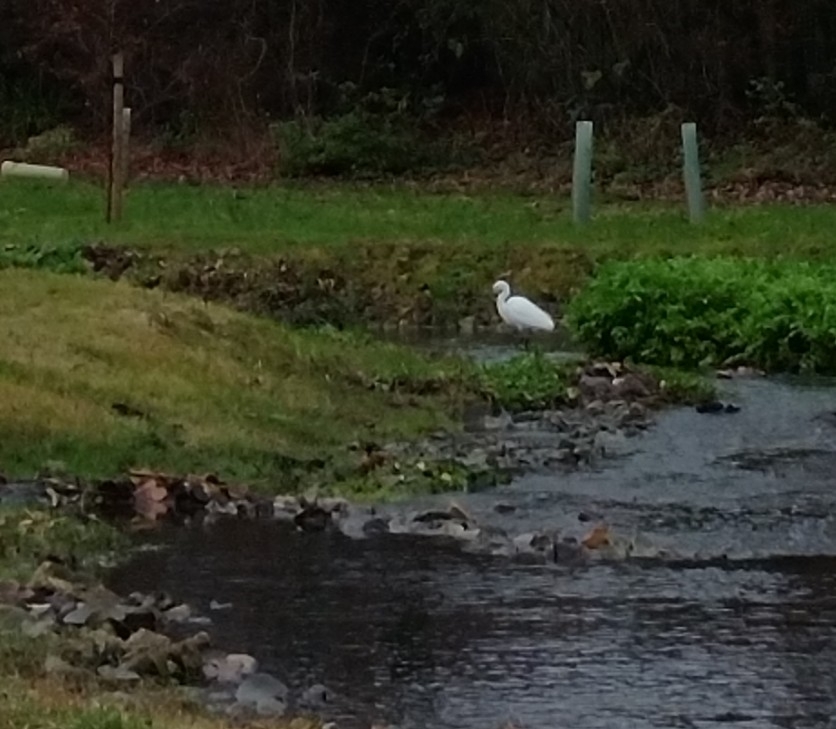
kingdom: Animalia
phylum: Chordata
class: Aves
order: Pelecaniformes
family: Ardeidae
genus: Egretta
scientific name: Egretta garzetta
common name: Little egret
